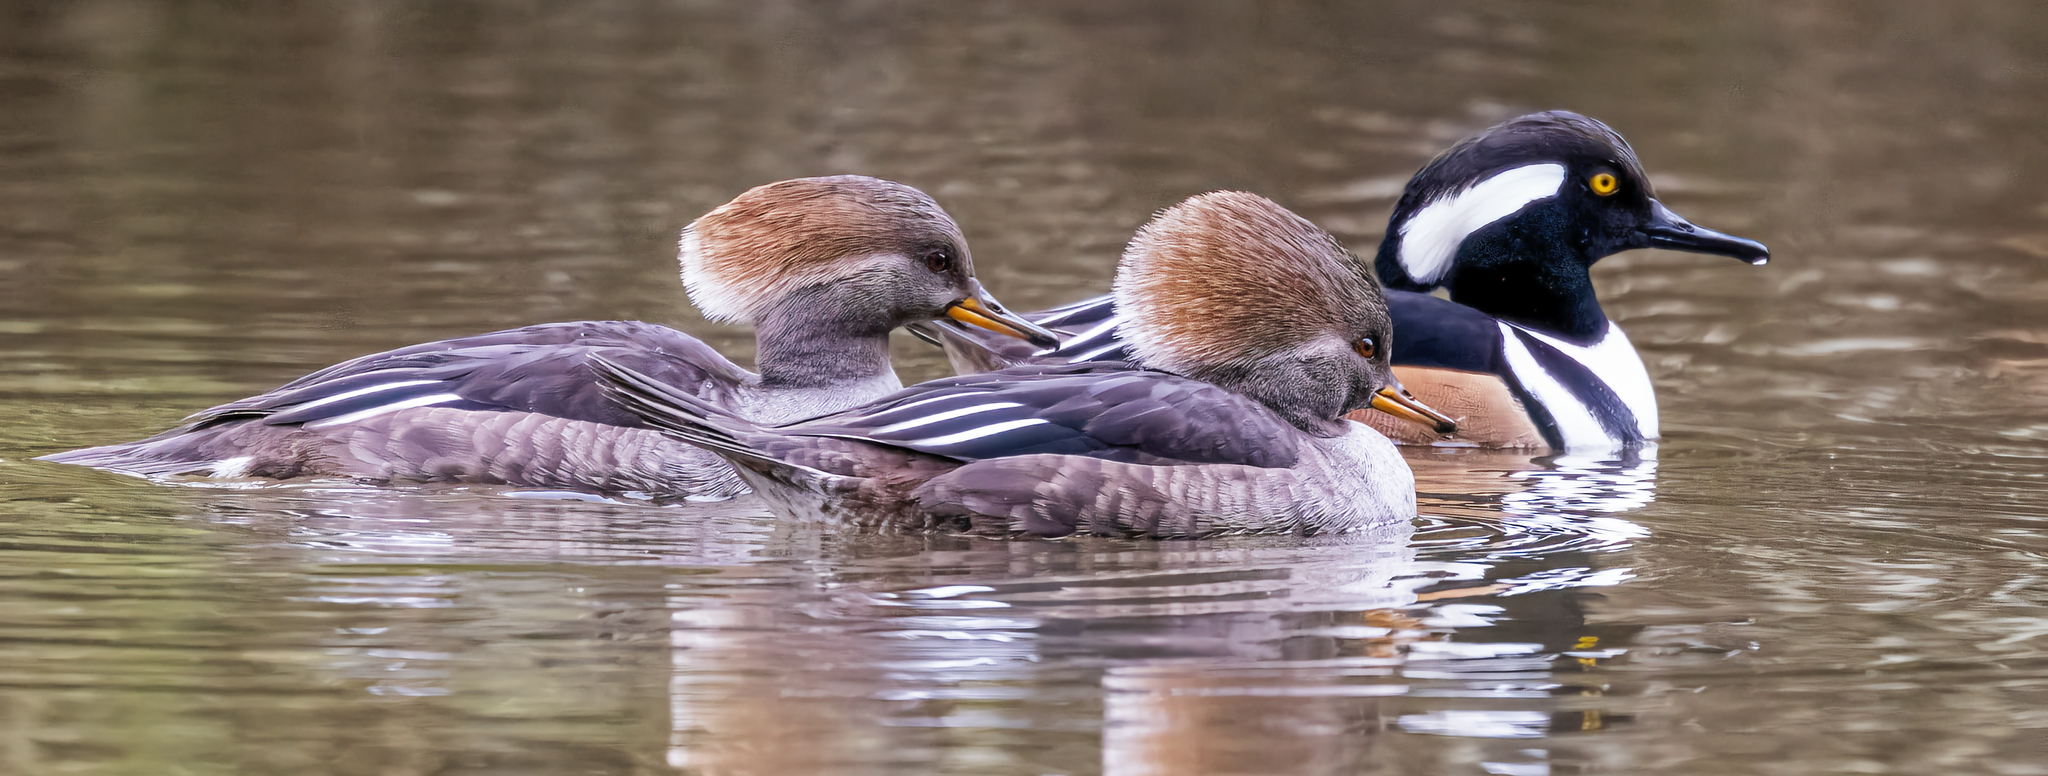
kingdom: Animalia
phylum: Chordata
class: Aves
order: Anseriformes
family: Anatidae
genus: Lophodytes
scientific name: Lophodytes cucullatus
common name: Hooded merganser
